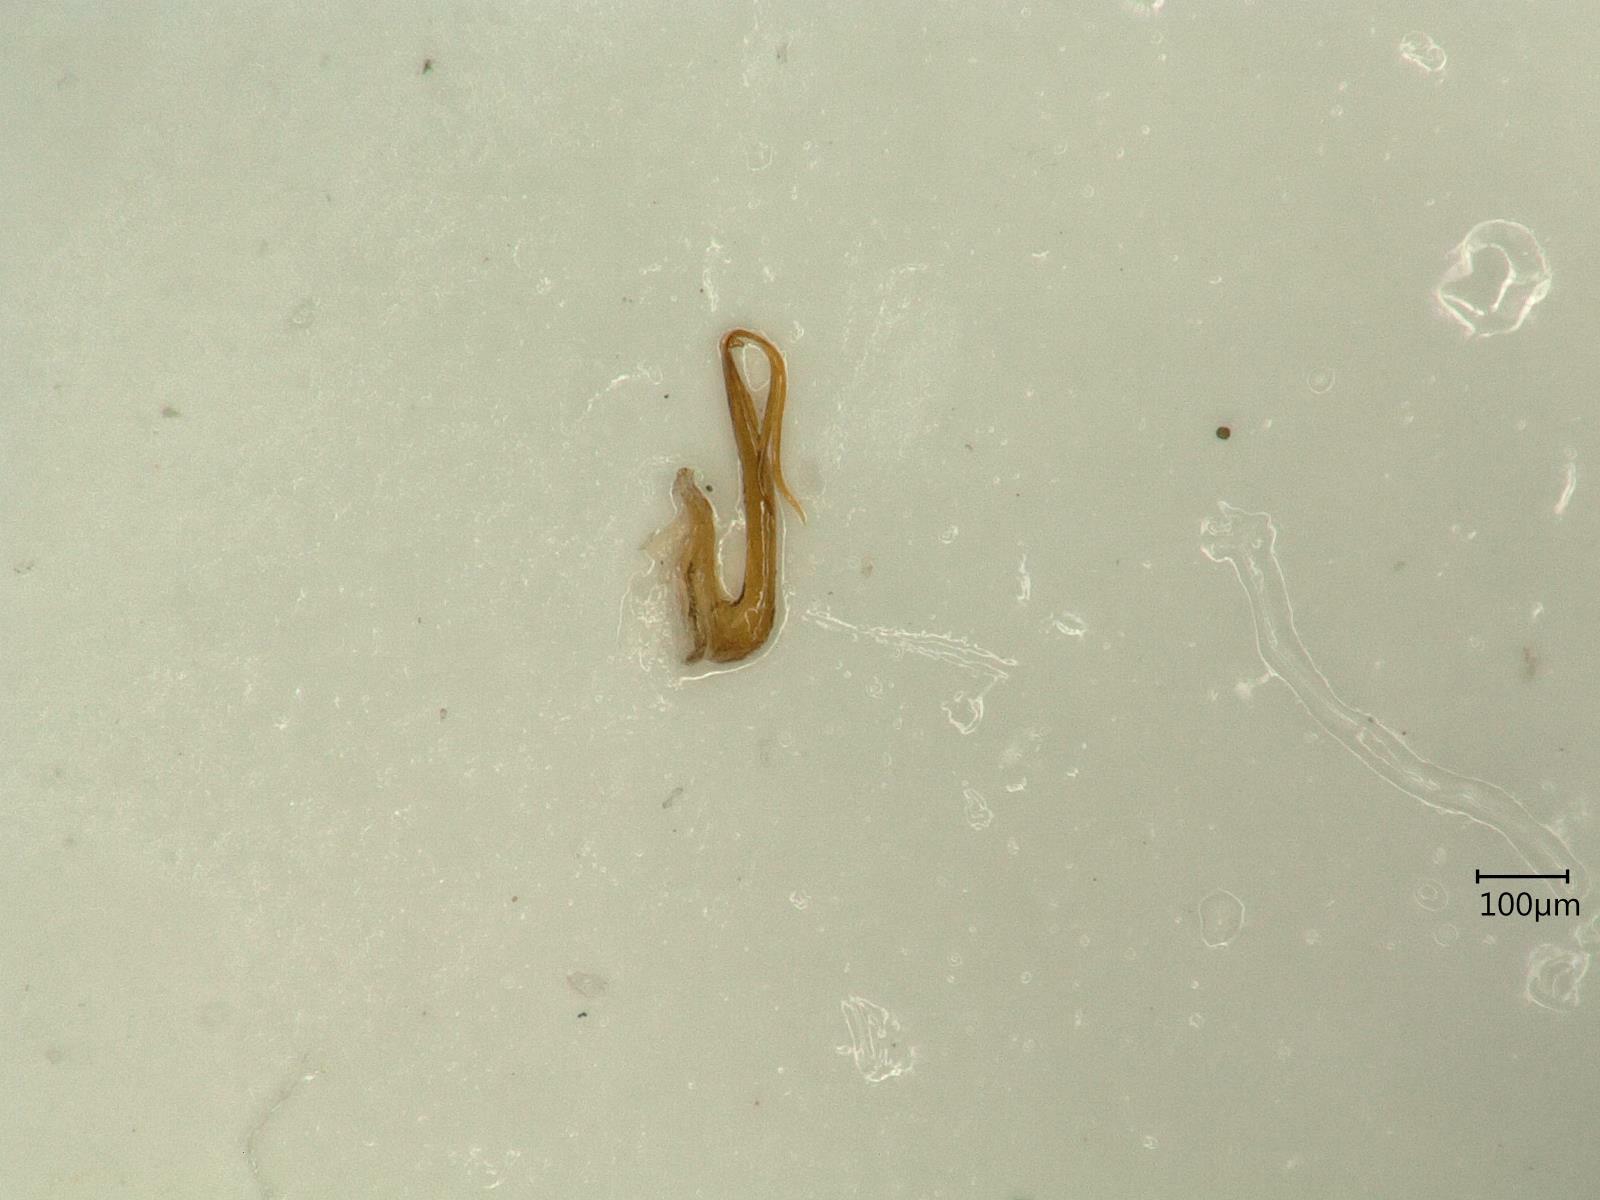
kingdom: Animalia
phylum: Arthropoda
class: Insecta
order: Hemiptera
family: Cicadellidae
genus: Macrosteles
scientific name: Macrosteles variatus
